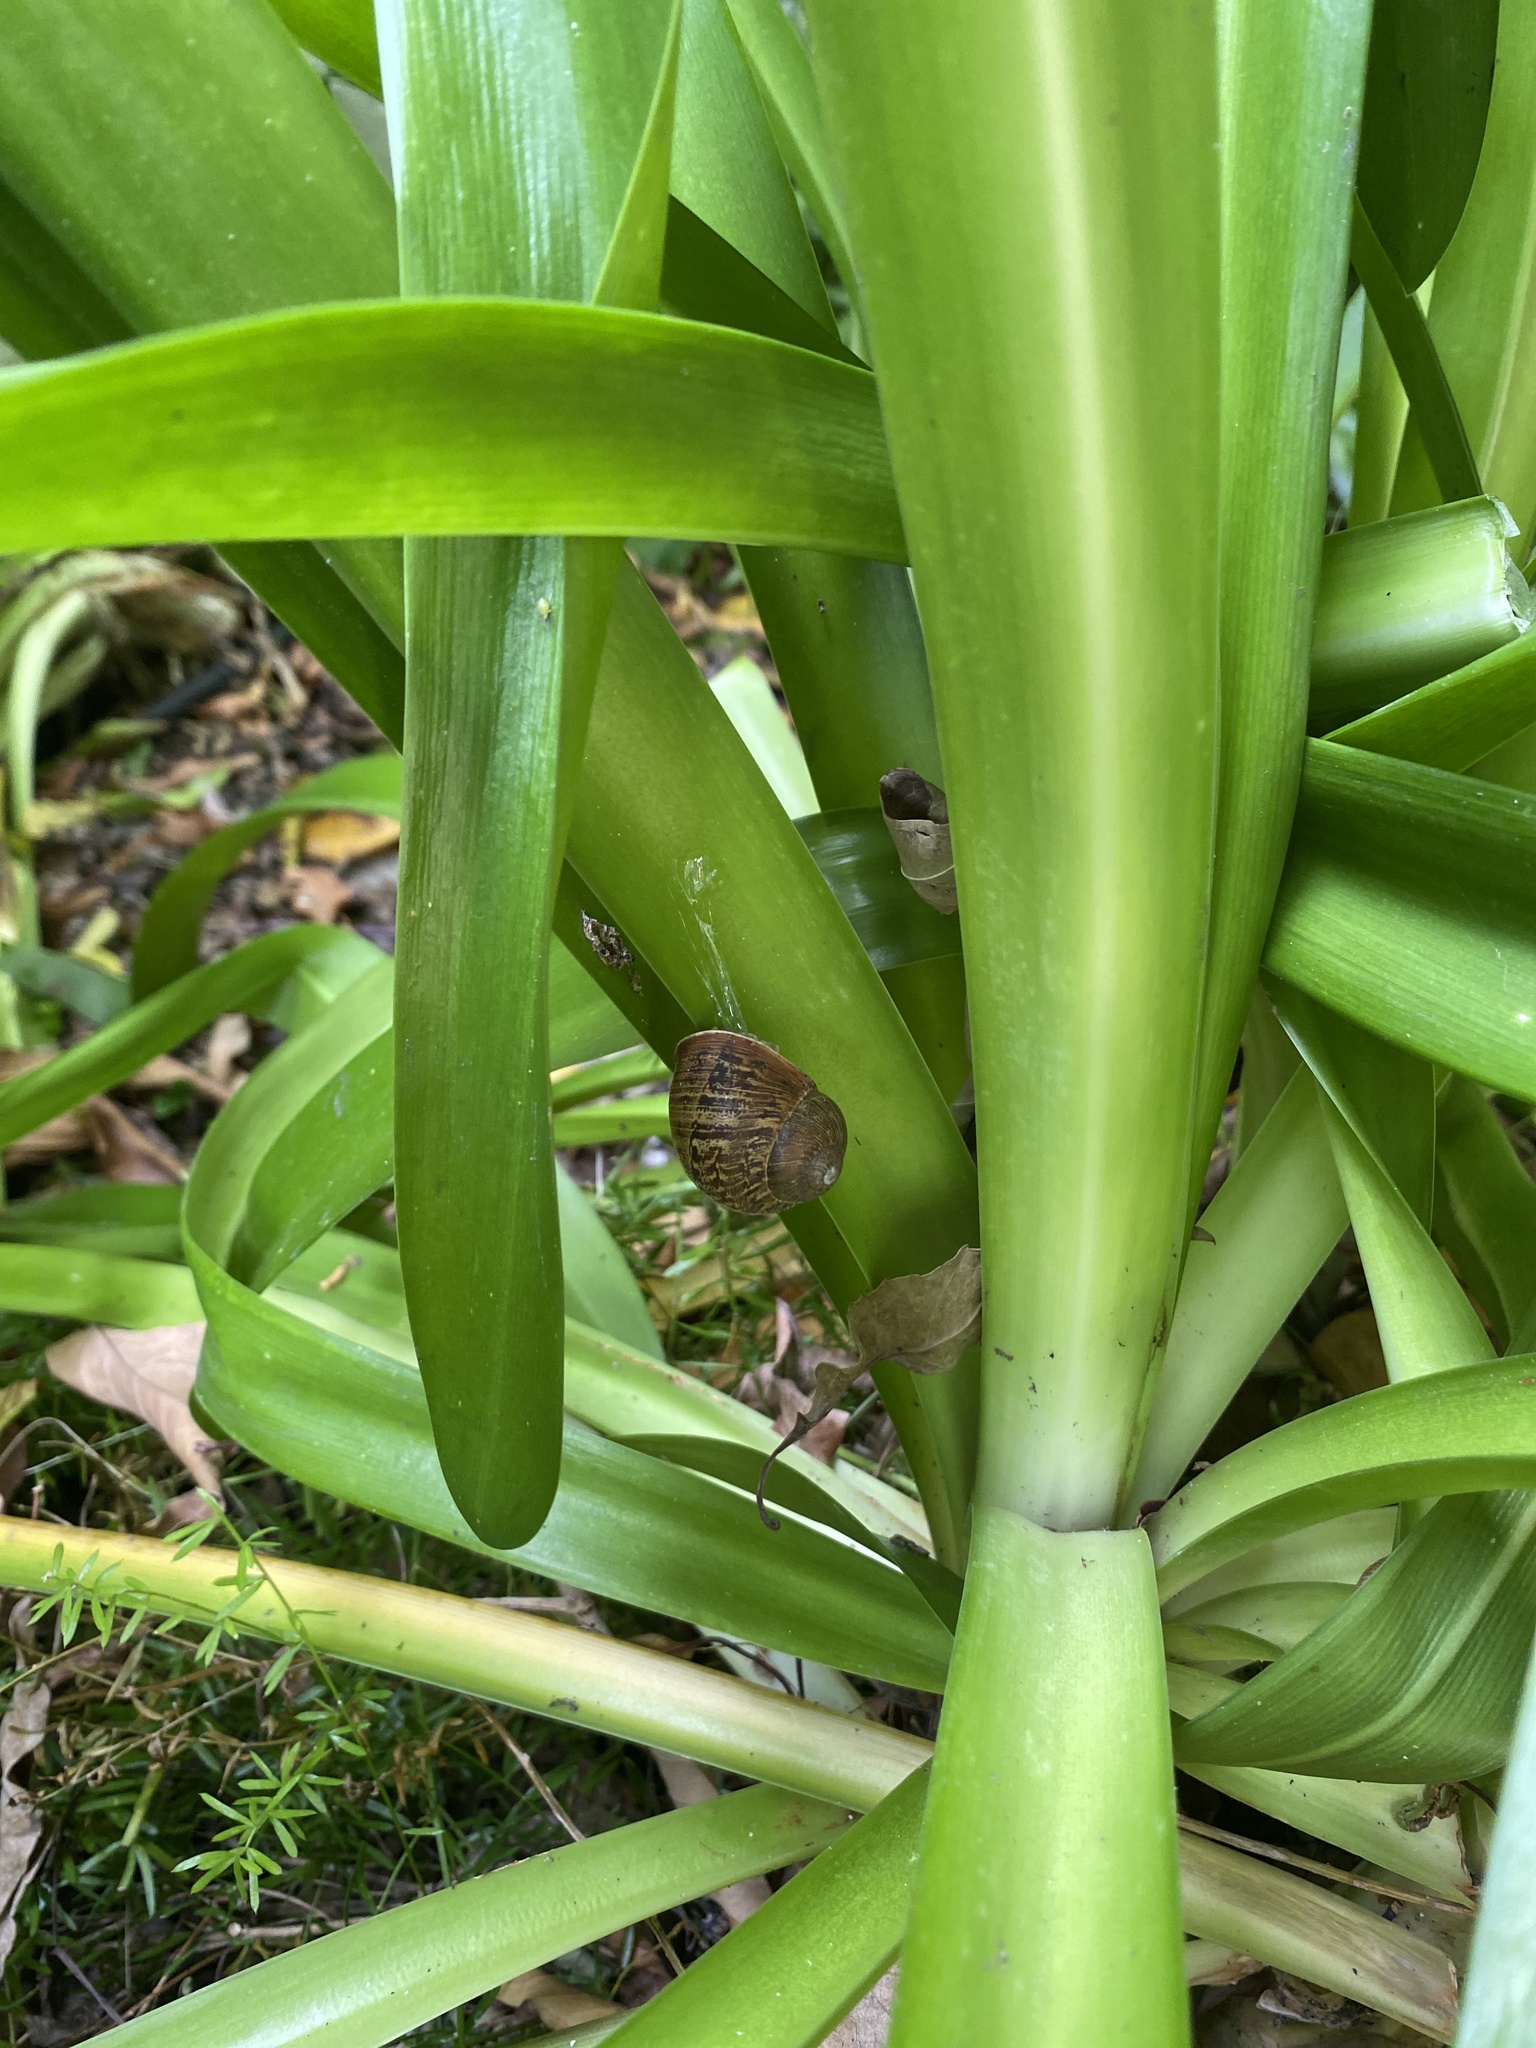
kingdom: Animalia
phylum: Mollusca
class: Gastropoda
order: Stylommatophora
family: Helicidae
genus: Cornu
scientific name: Cornu aspersum
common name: Brown garden snail
